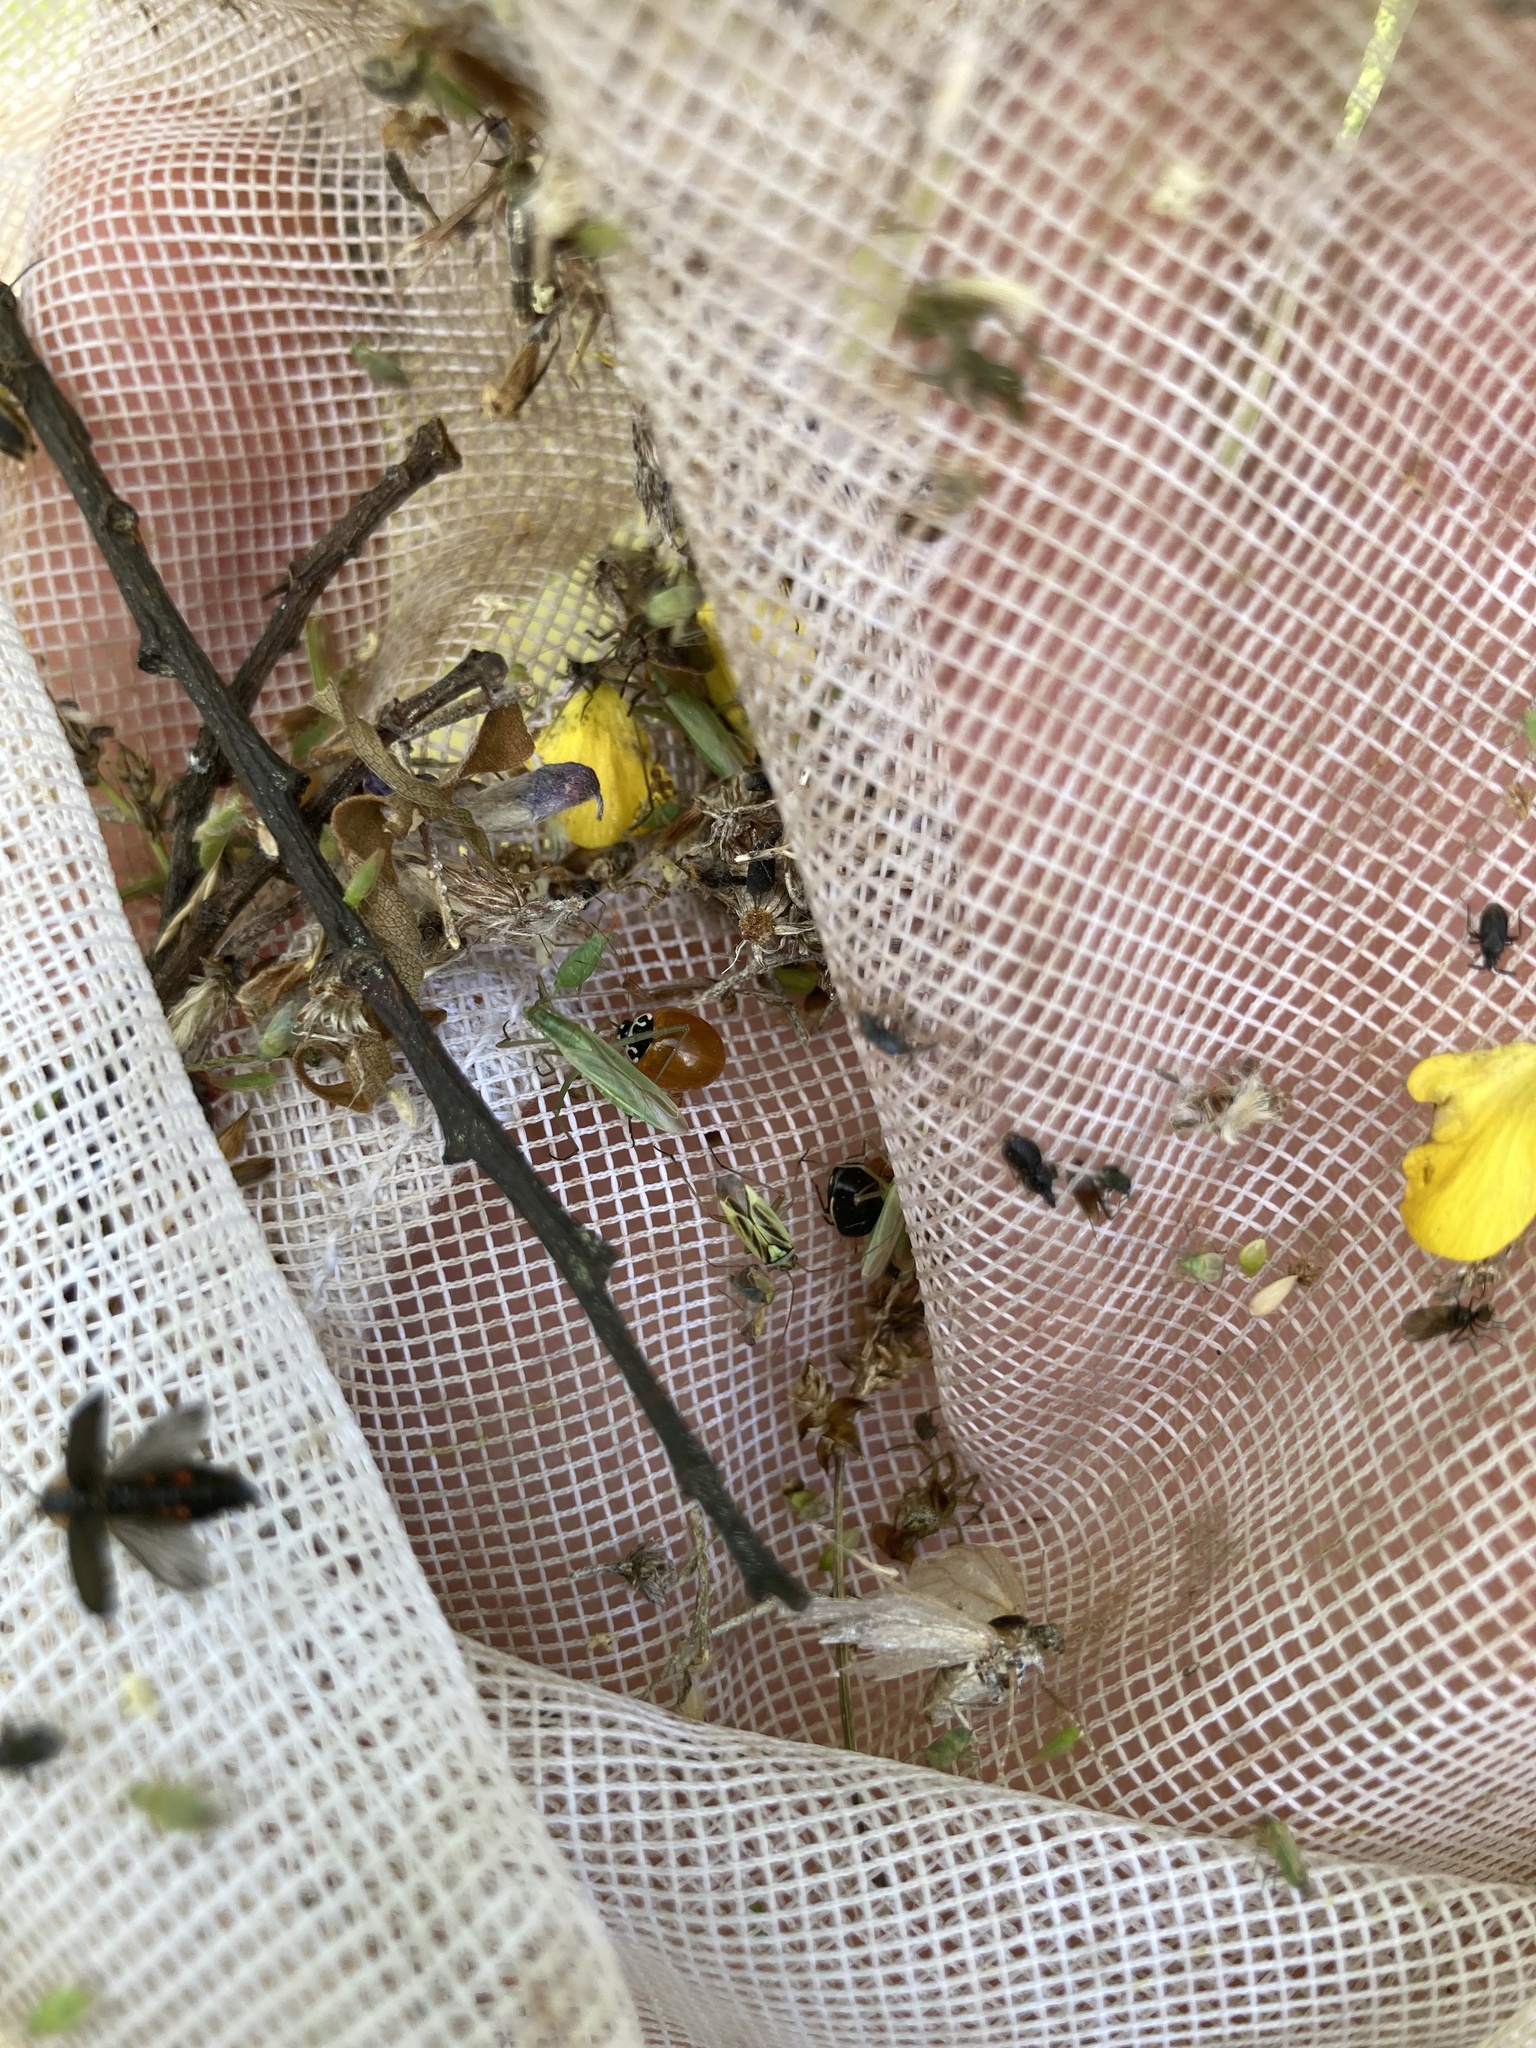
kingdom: Animalia
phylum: Arthropoda
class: Insecta
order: Coleoptera
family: Coccinellidae
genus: Cycloneda
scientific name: Cycloneda munda
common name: Polished lady beetle
